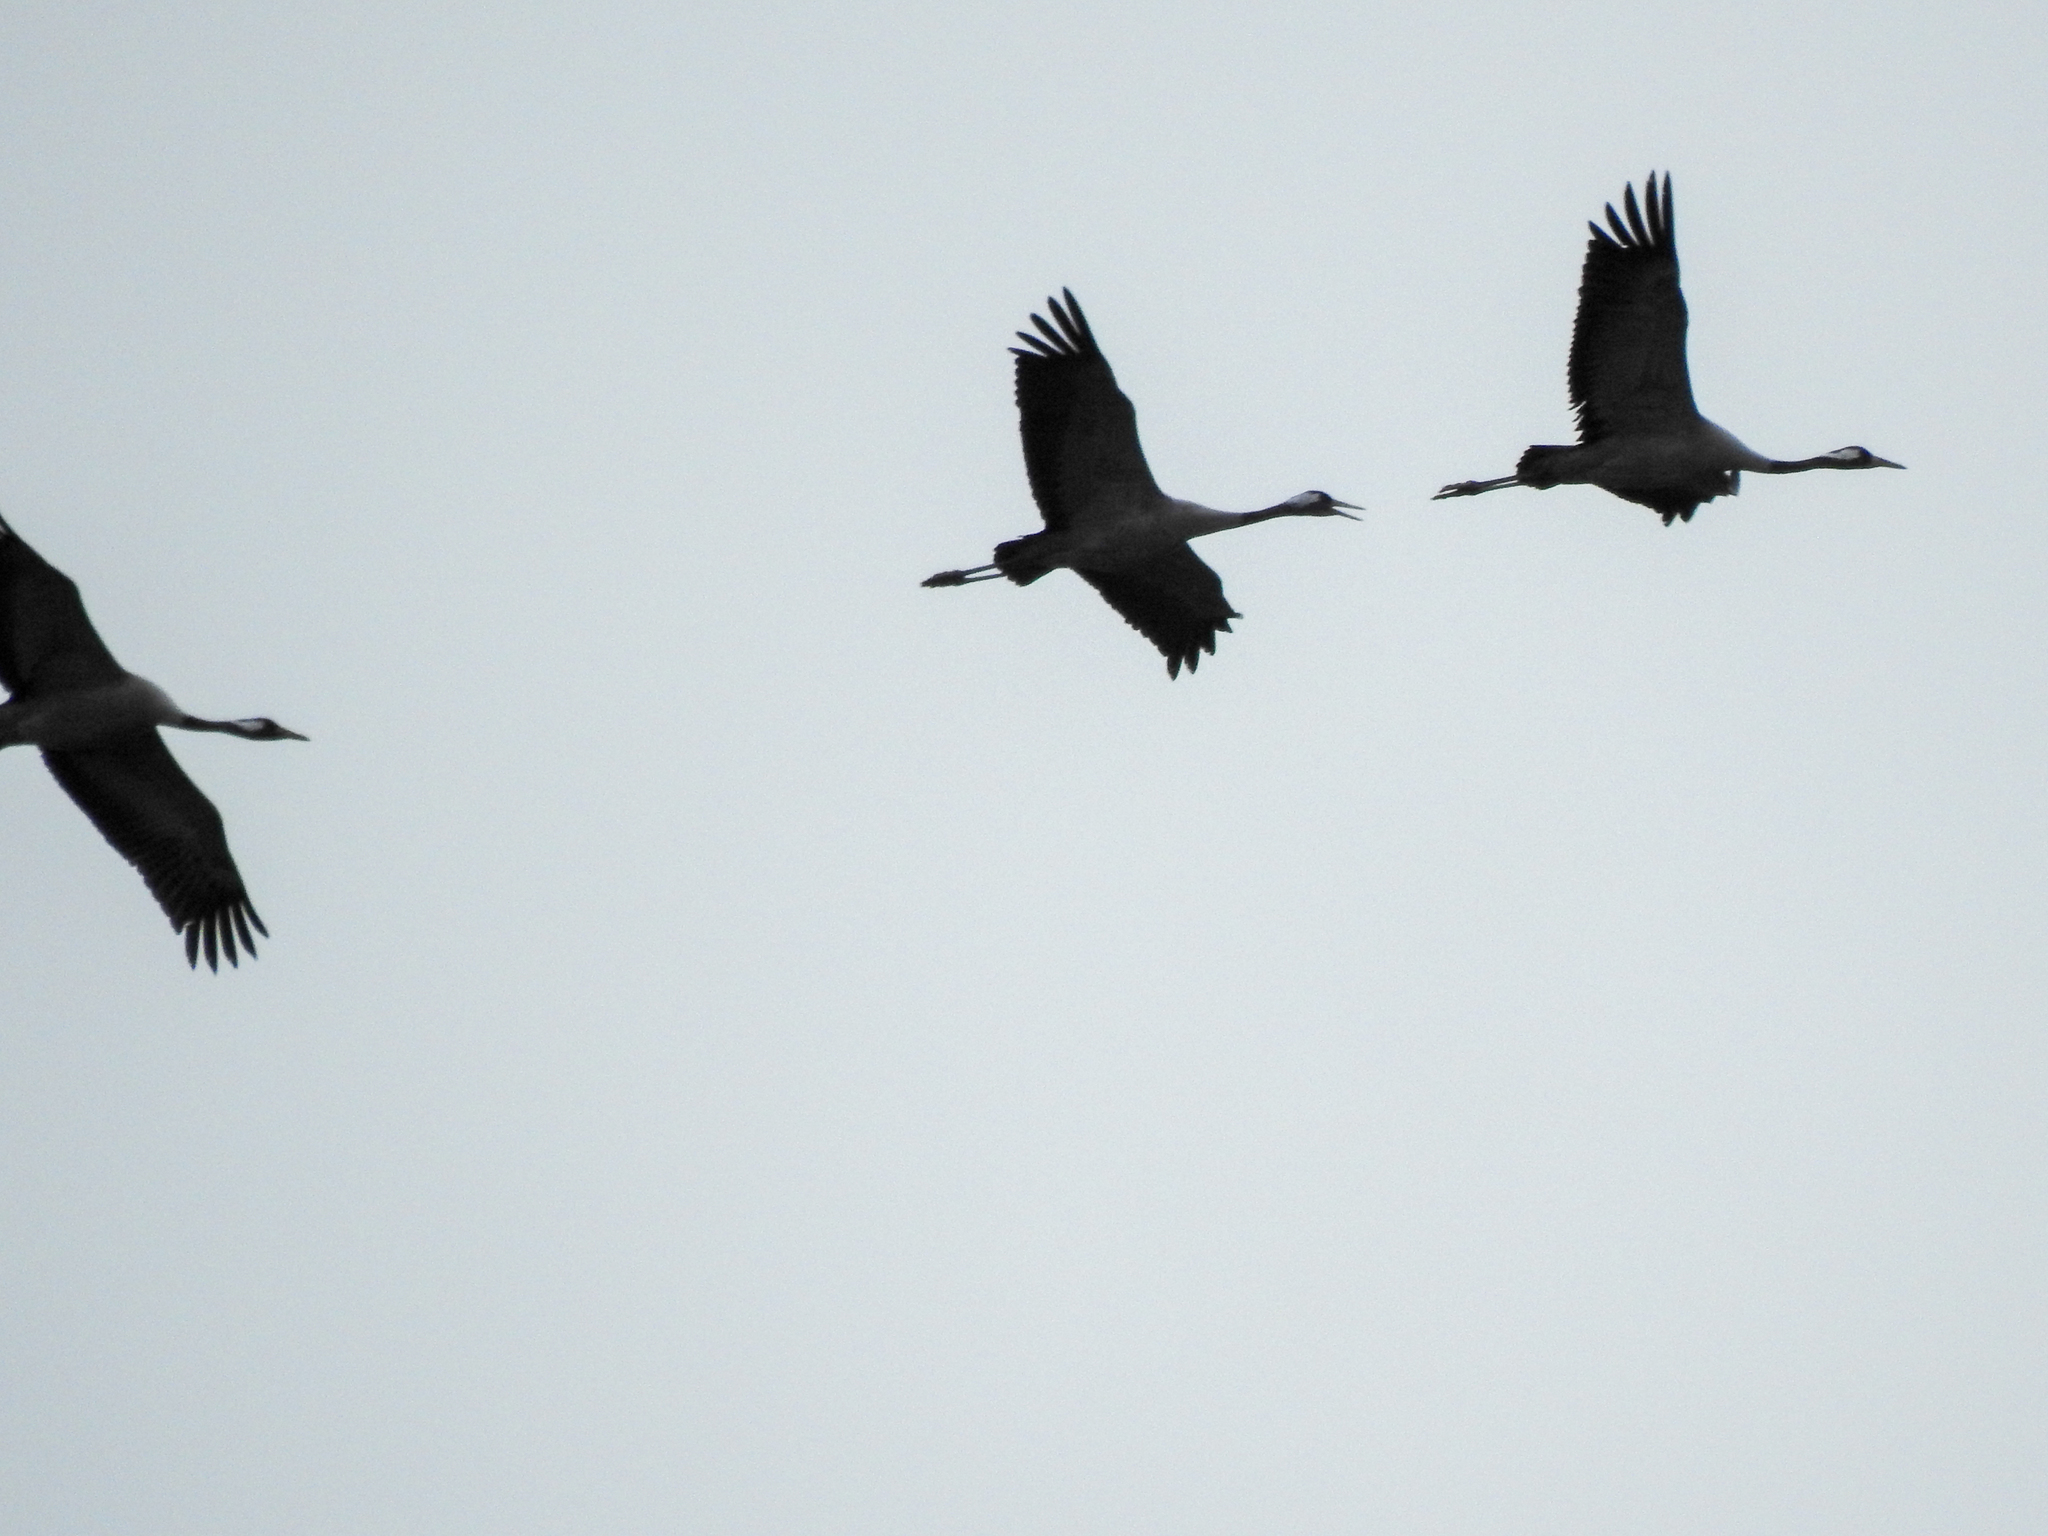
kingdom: Animalia
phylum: Chordata
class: Aves
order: Gruiformes
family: Gruidae
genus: Grus
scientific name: Grus grus
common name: Common crane
